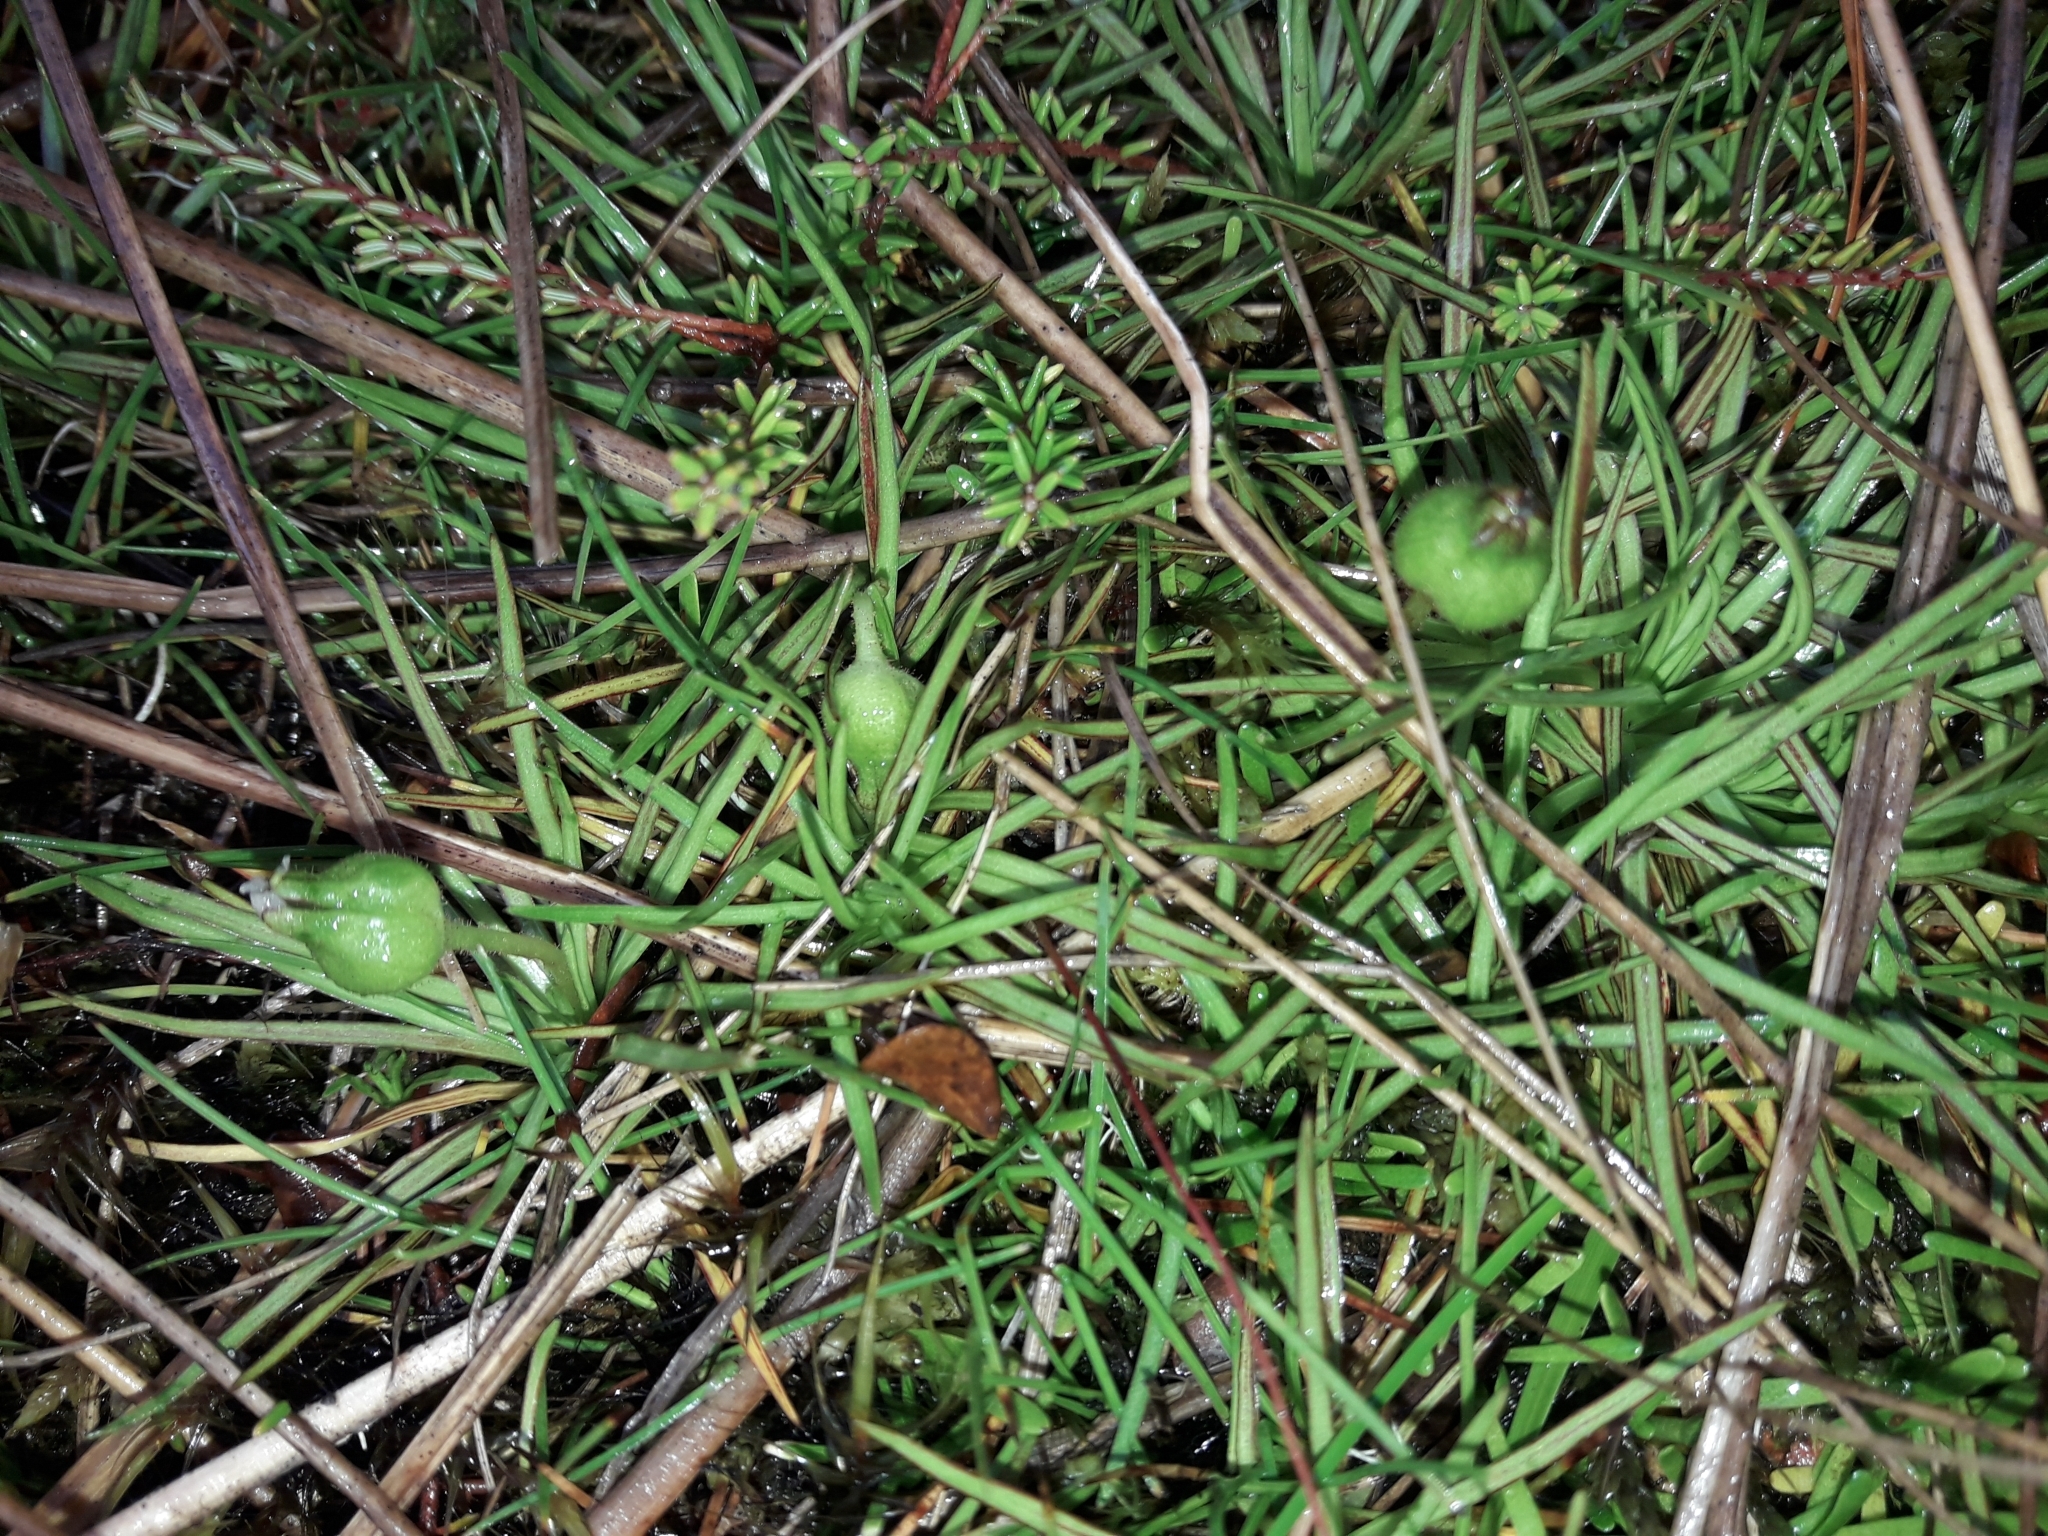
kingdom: Plantae
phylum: Tracheophyta
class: Magnoliopsida
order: Asterales
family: Stylidiaceae
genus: Oreostylidium
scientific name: Oreostylidium subulatum
